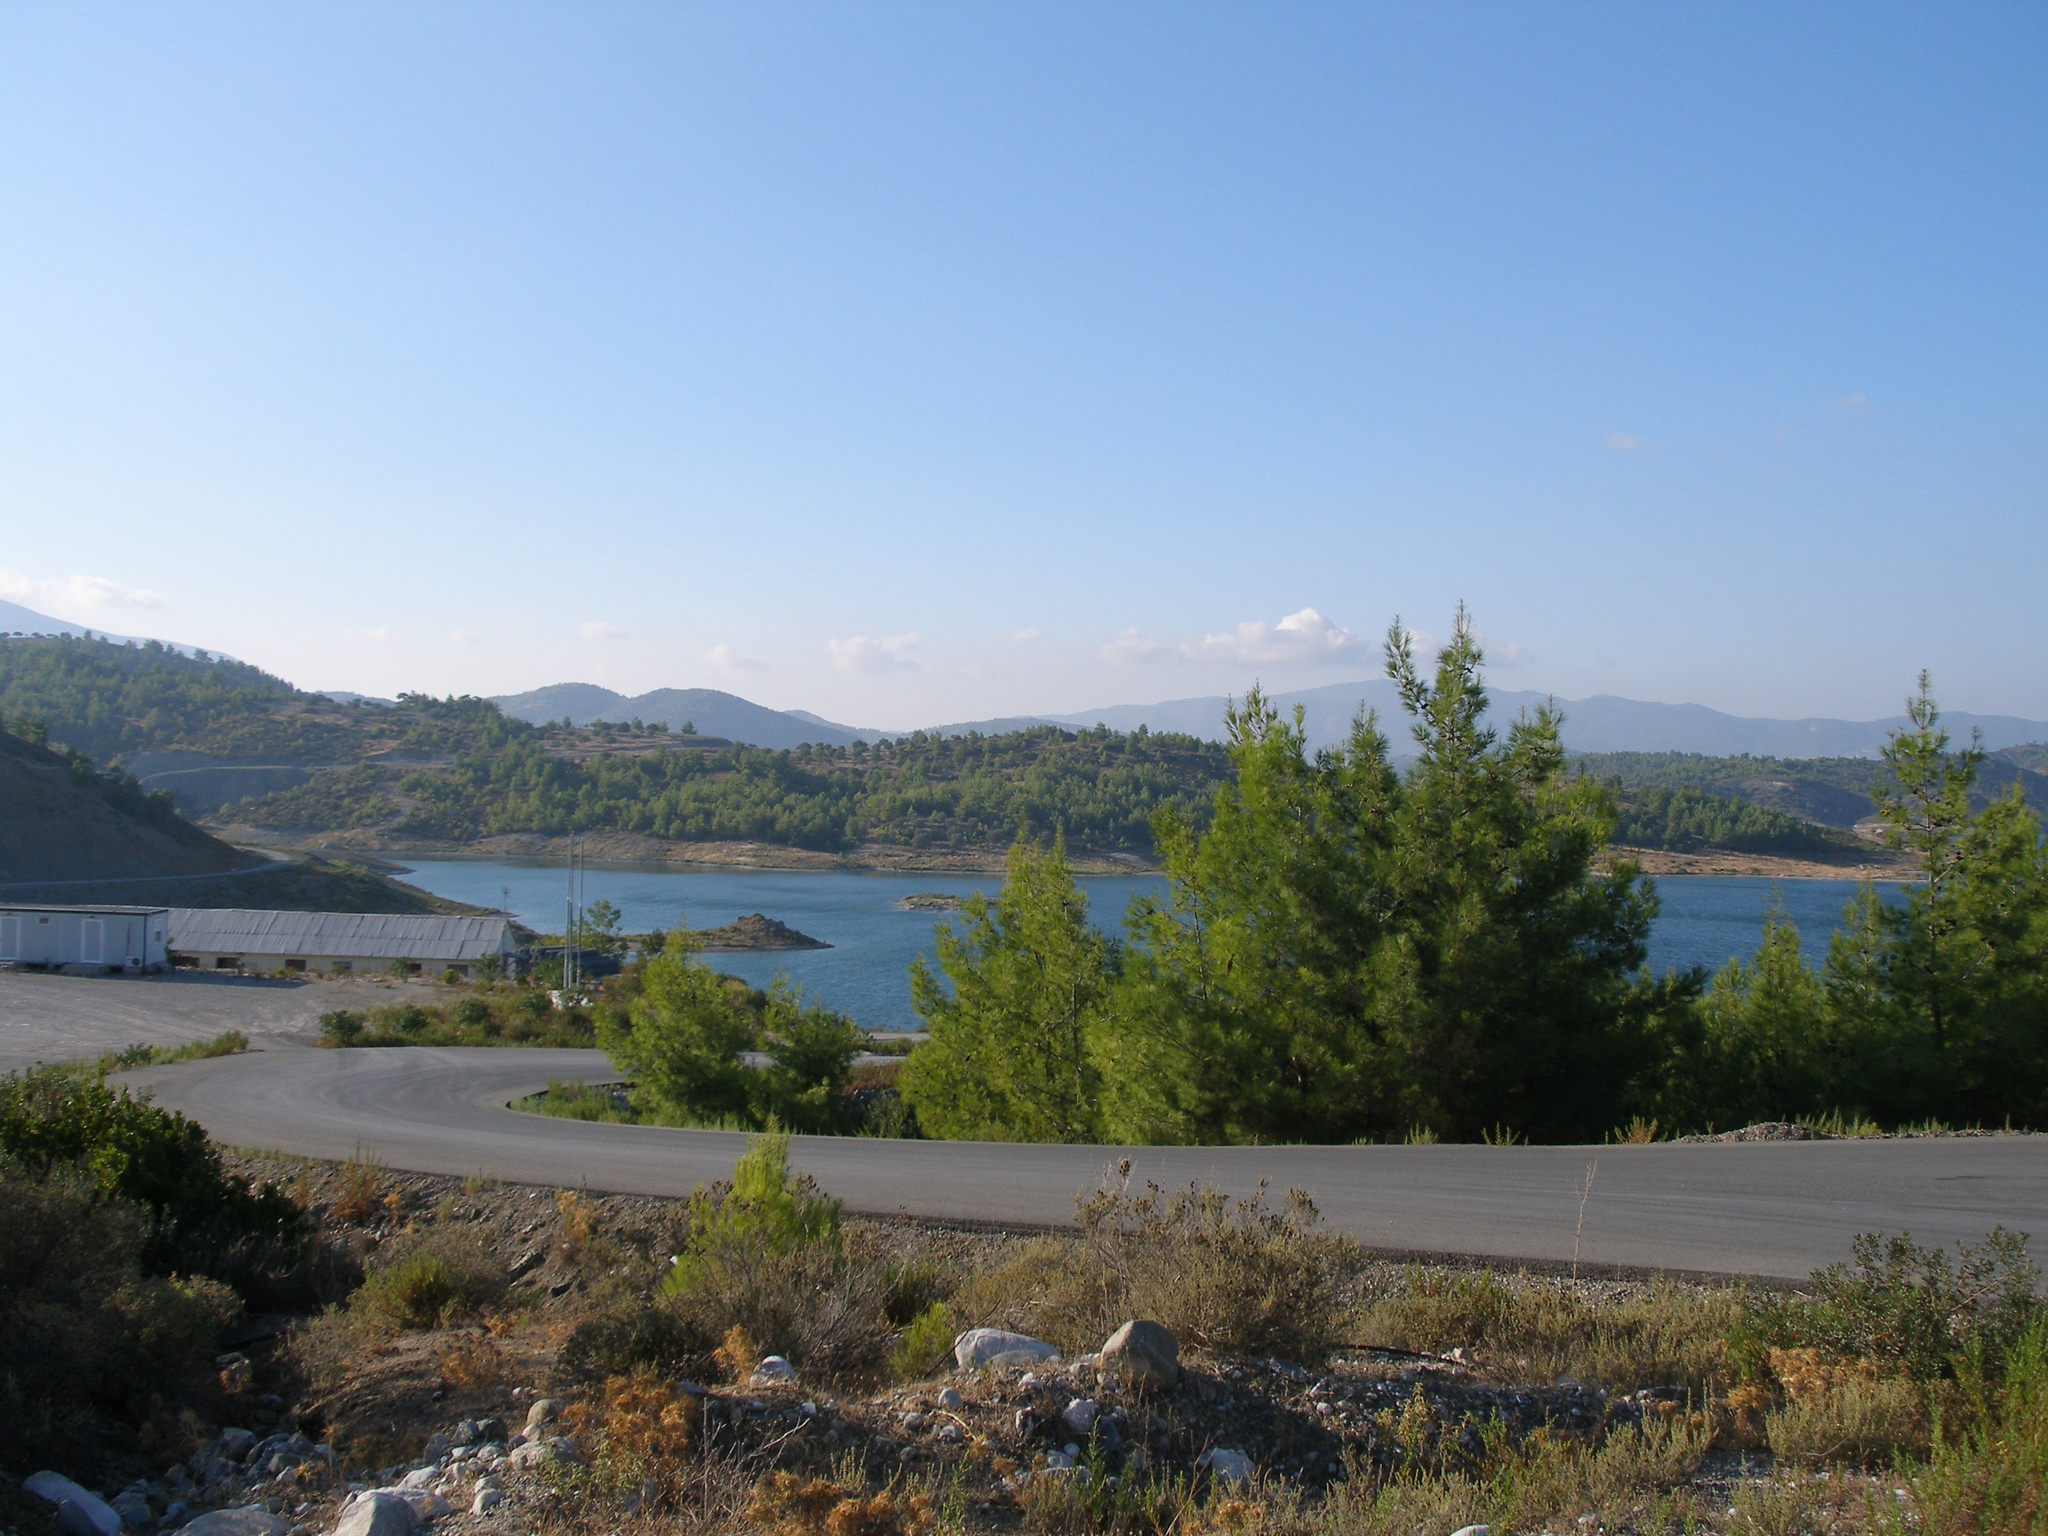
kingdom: Plantae
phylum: Tracheophyta
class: Pinopsida
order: Pinales
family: Pinaceae
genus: Pinus
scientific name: Pinus brutia
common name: Turkish pine
